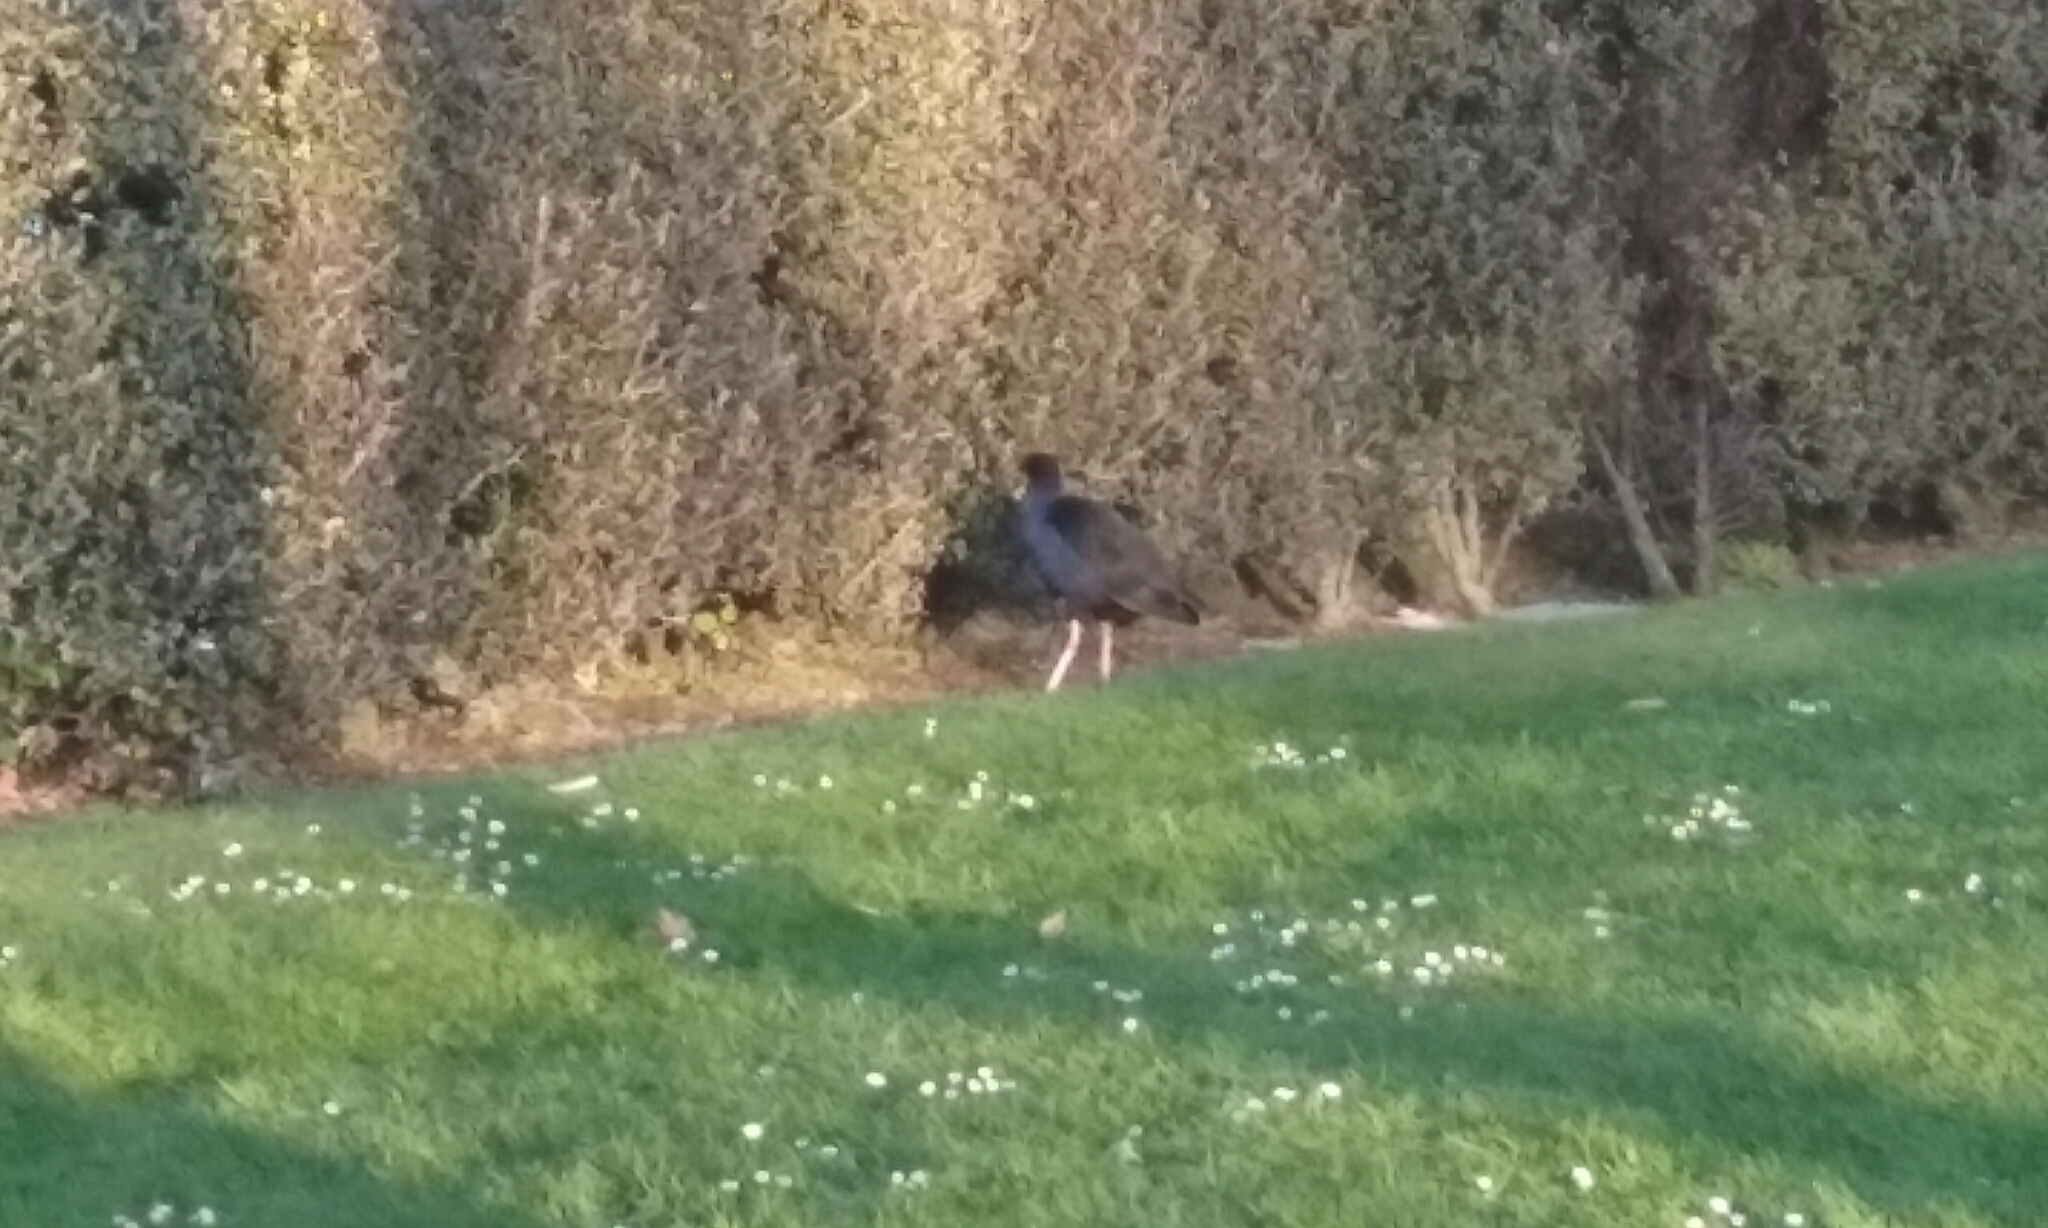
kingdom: Animalia
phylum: Chordata
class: Aves
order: Gruiformes
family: Rallidae
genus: Porphyrio
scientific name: Porphyrio melanotus
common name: Australasian swamphen
